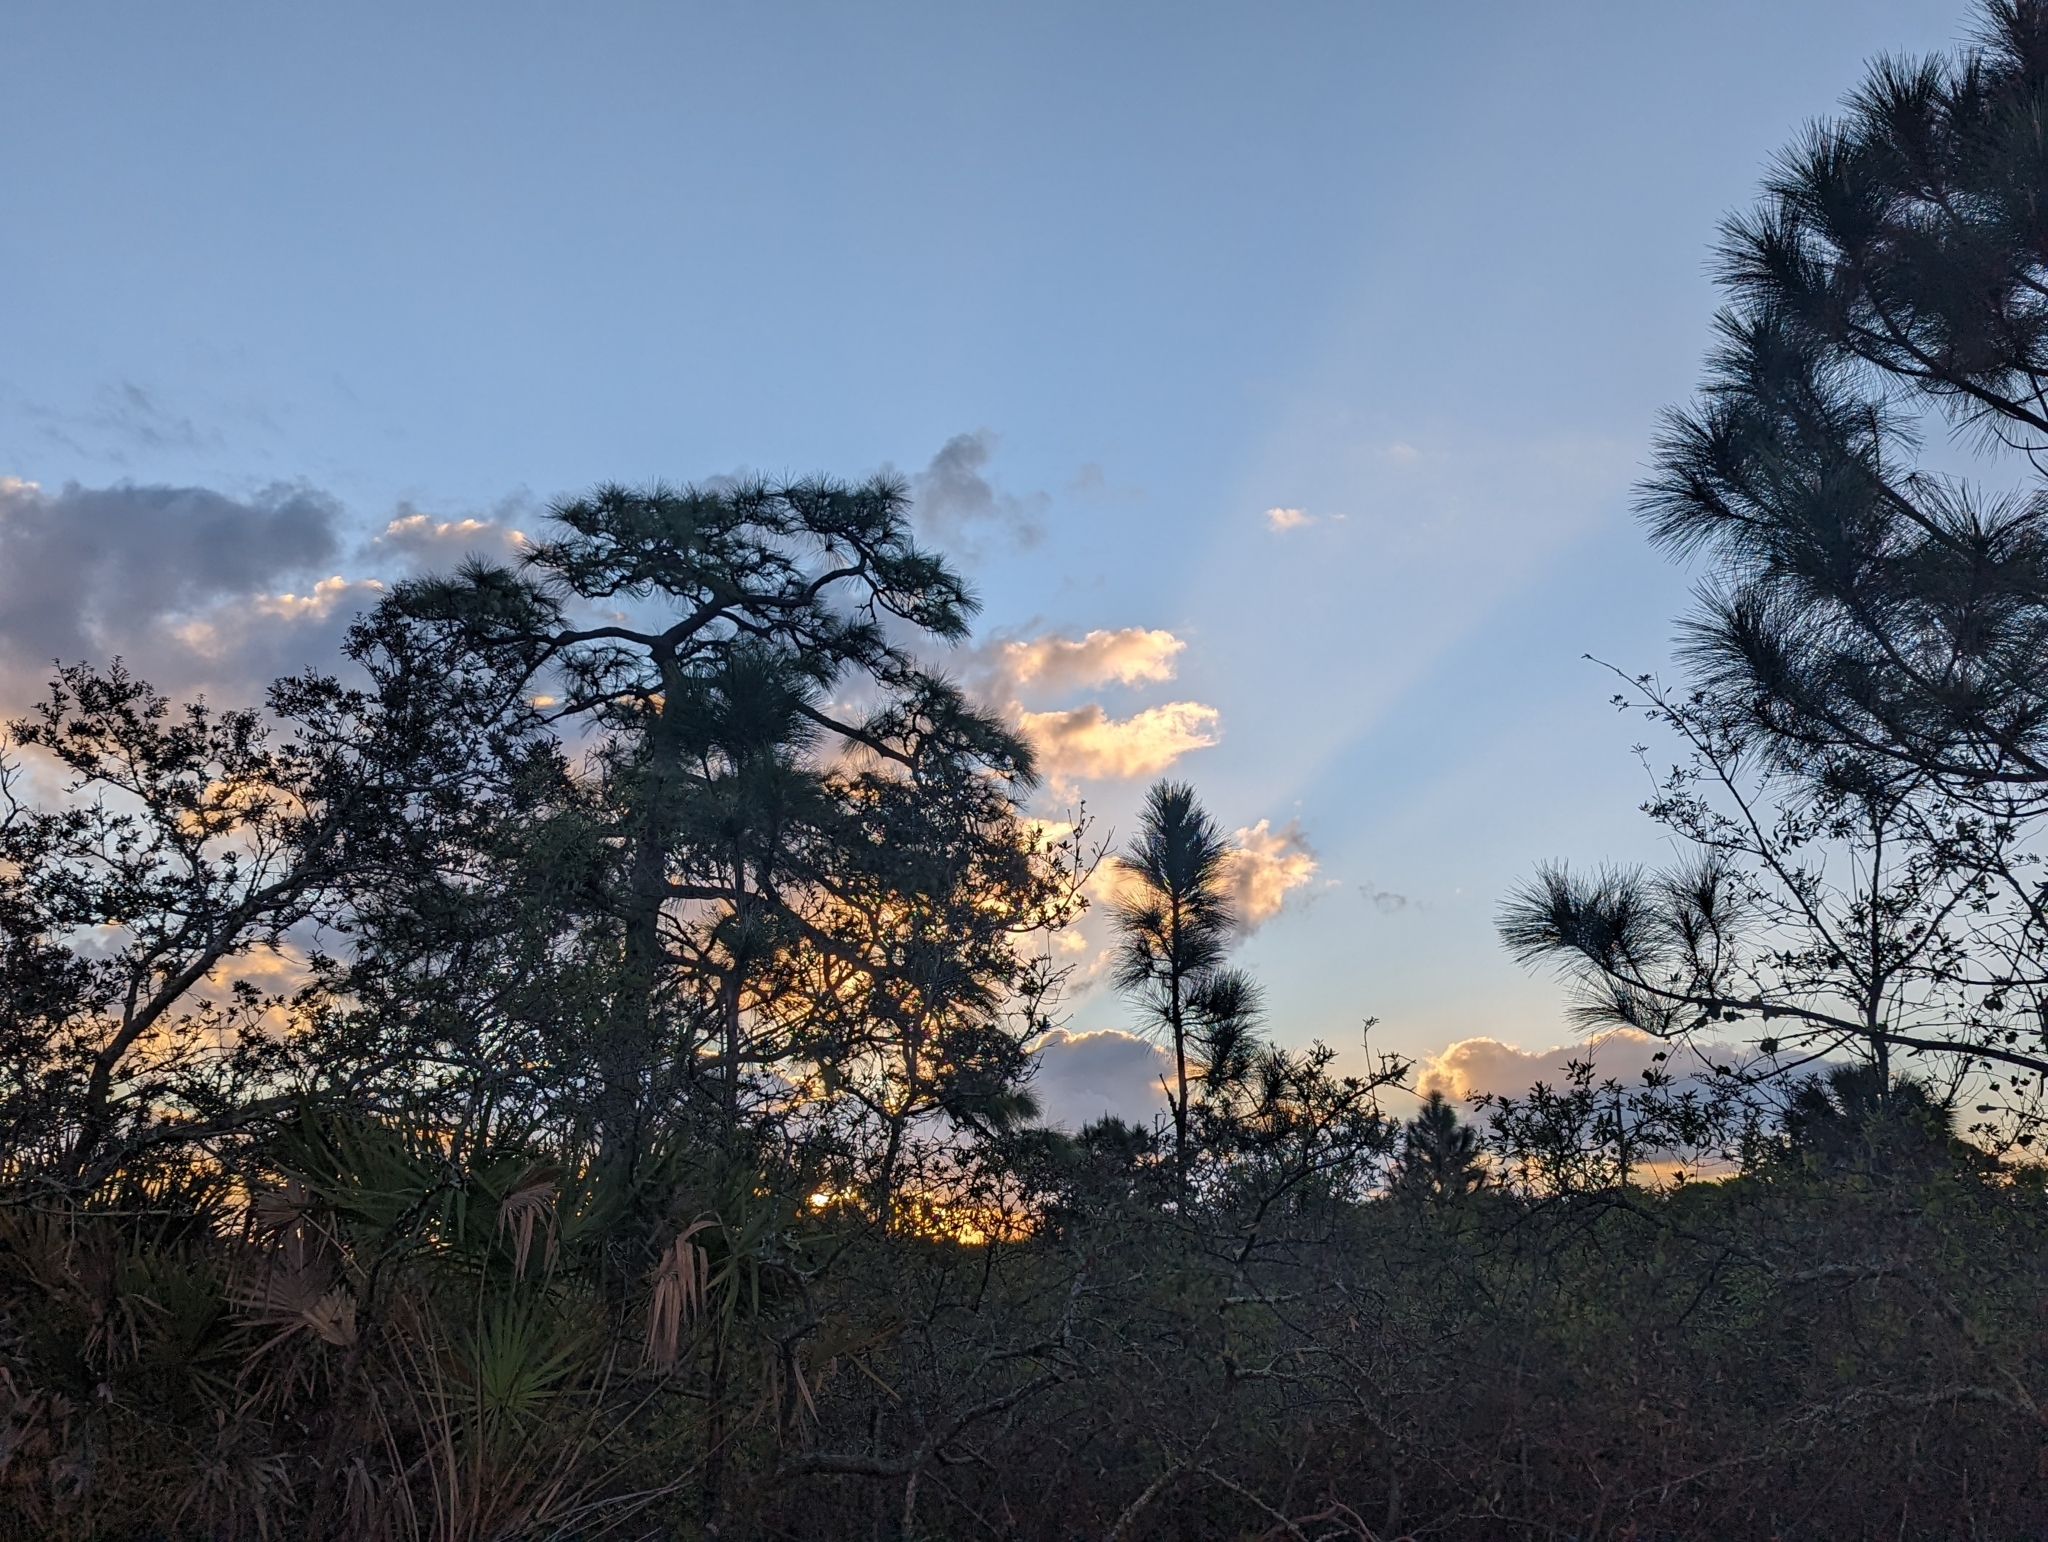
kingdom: Plantae
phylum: Tracheophyta
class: Pinopsida
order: Pinales
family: Pinaceae
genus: Pinus
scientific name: Pinus elliottii
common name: Slash pine
